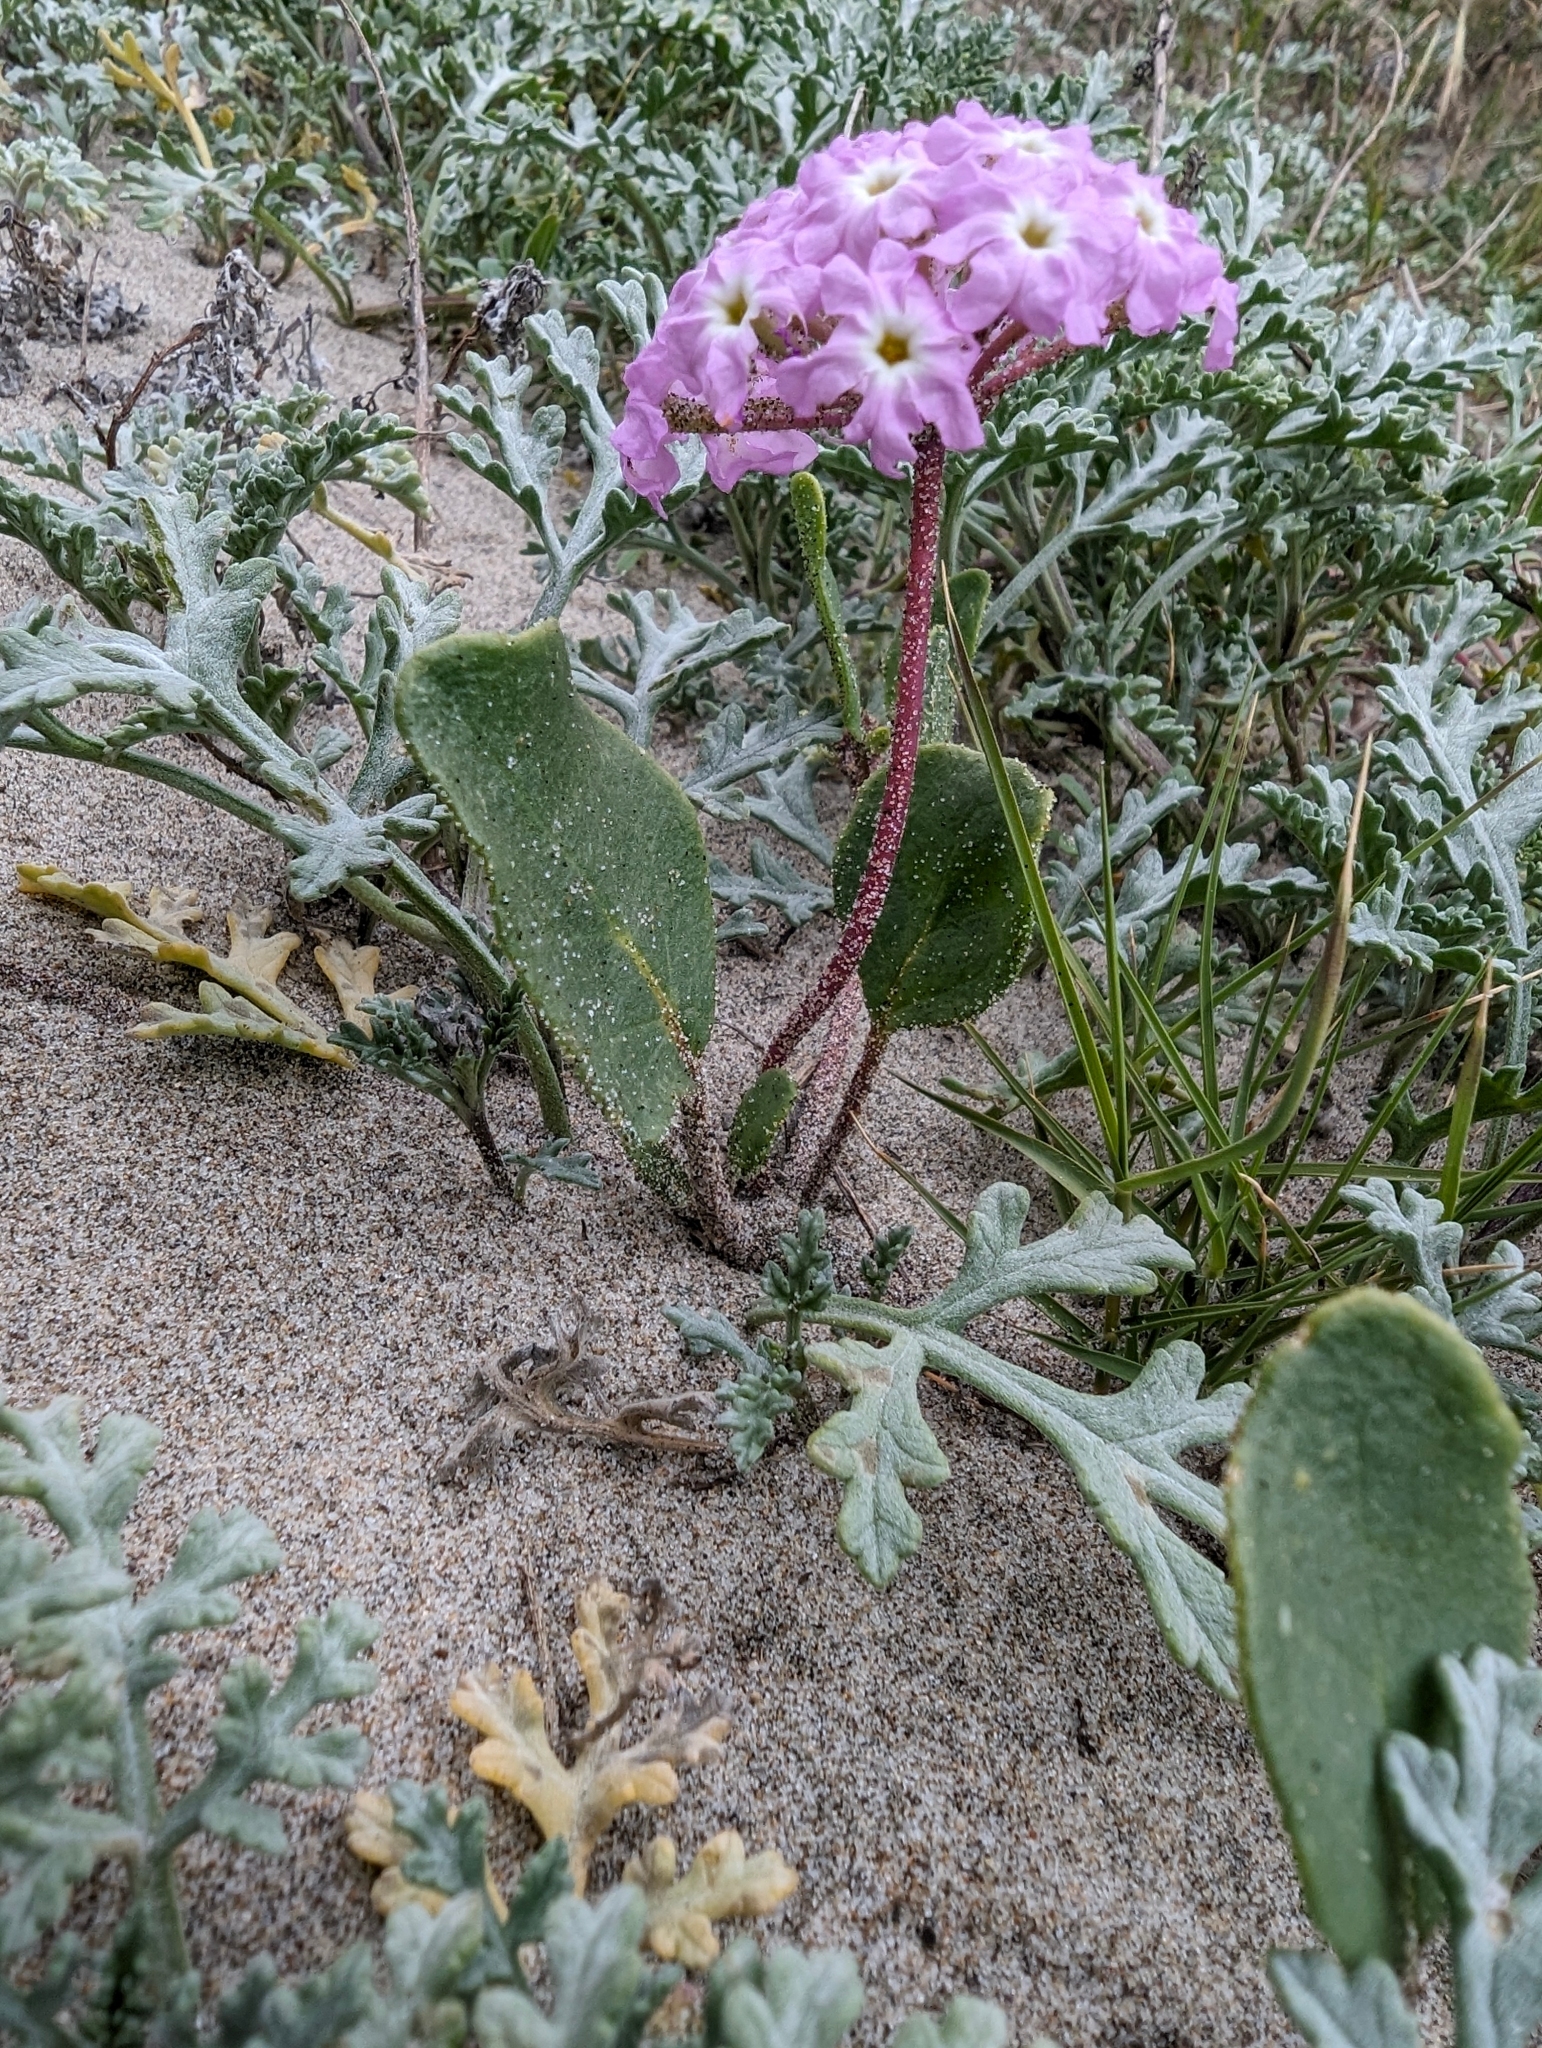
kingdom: Plantae
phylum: Tracheophyta
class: Magnoliopsida
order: Caryophyllales
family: Nyctaginaceae
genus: Abronia
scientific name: Abronia umbellata
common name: Sand-verbena
